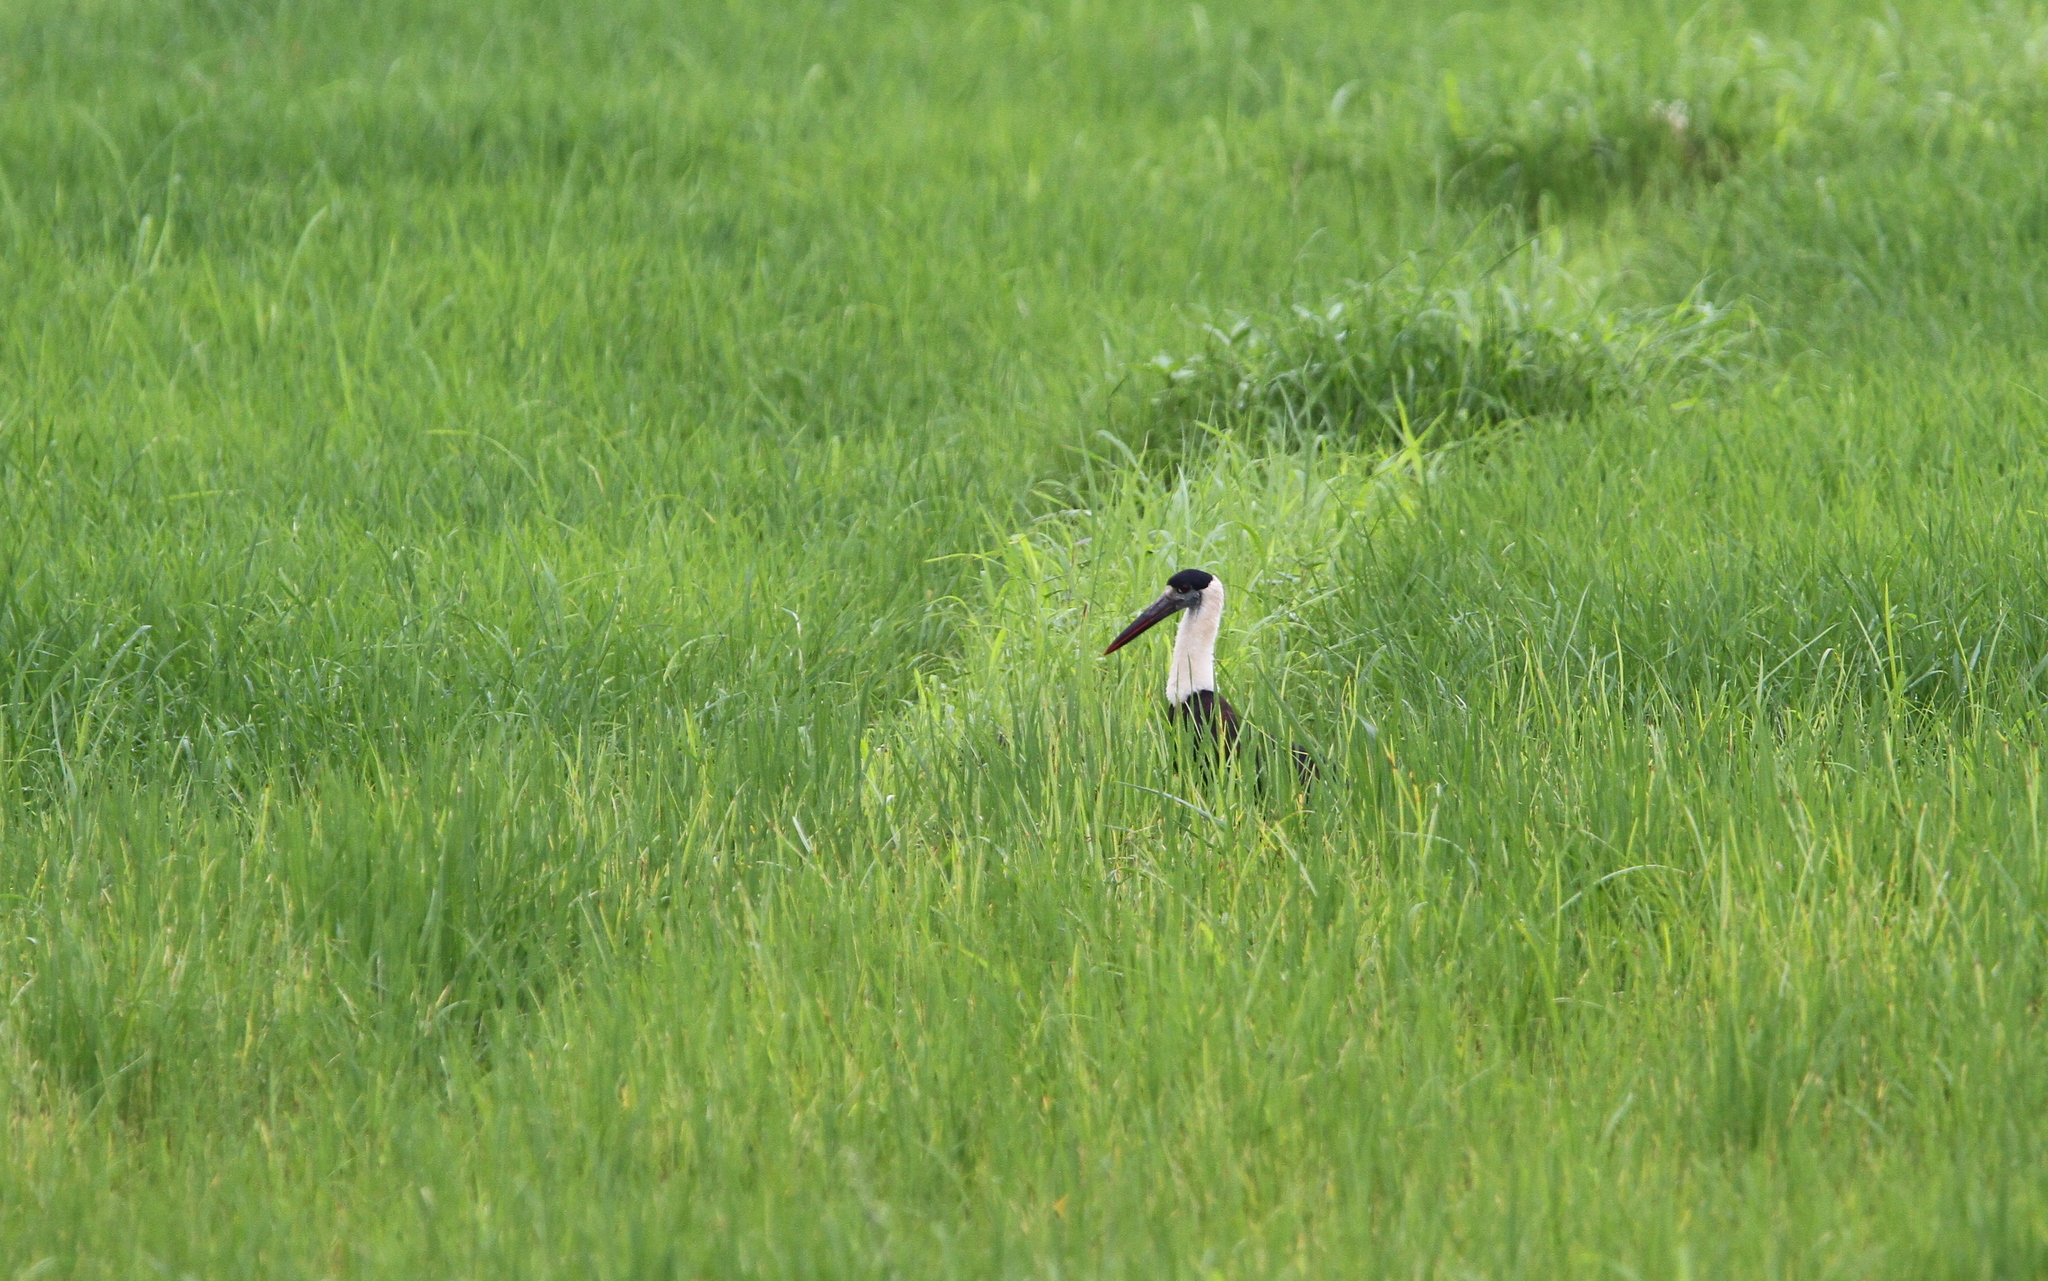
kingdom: Animalia
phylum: Chordata
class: Aves
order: Ciconiiformes
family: Ciconiidae
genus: Ciconia
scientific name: Ciconia episcopus
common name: Woolly-necked stork
